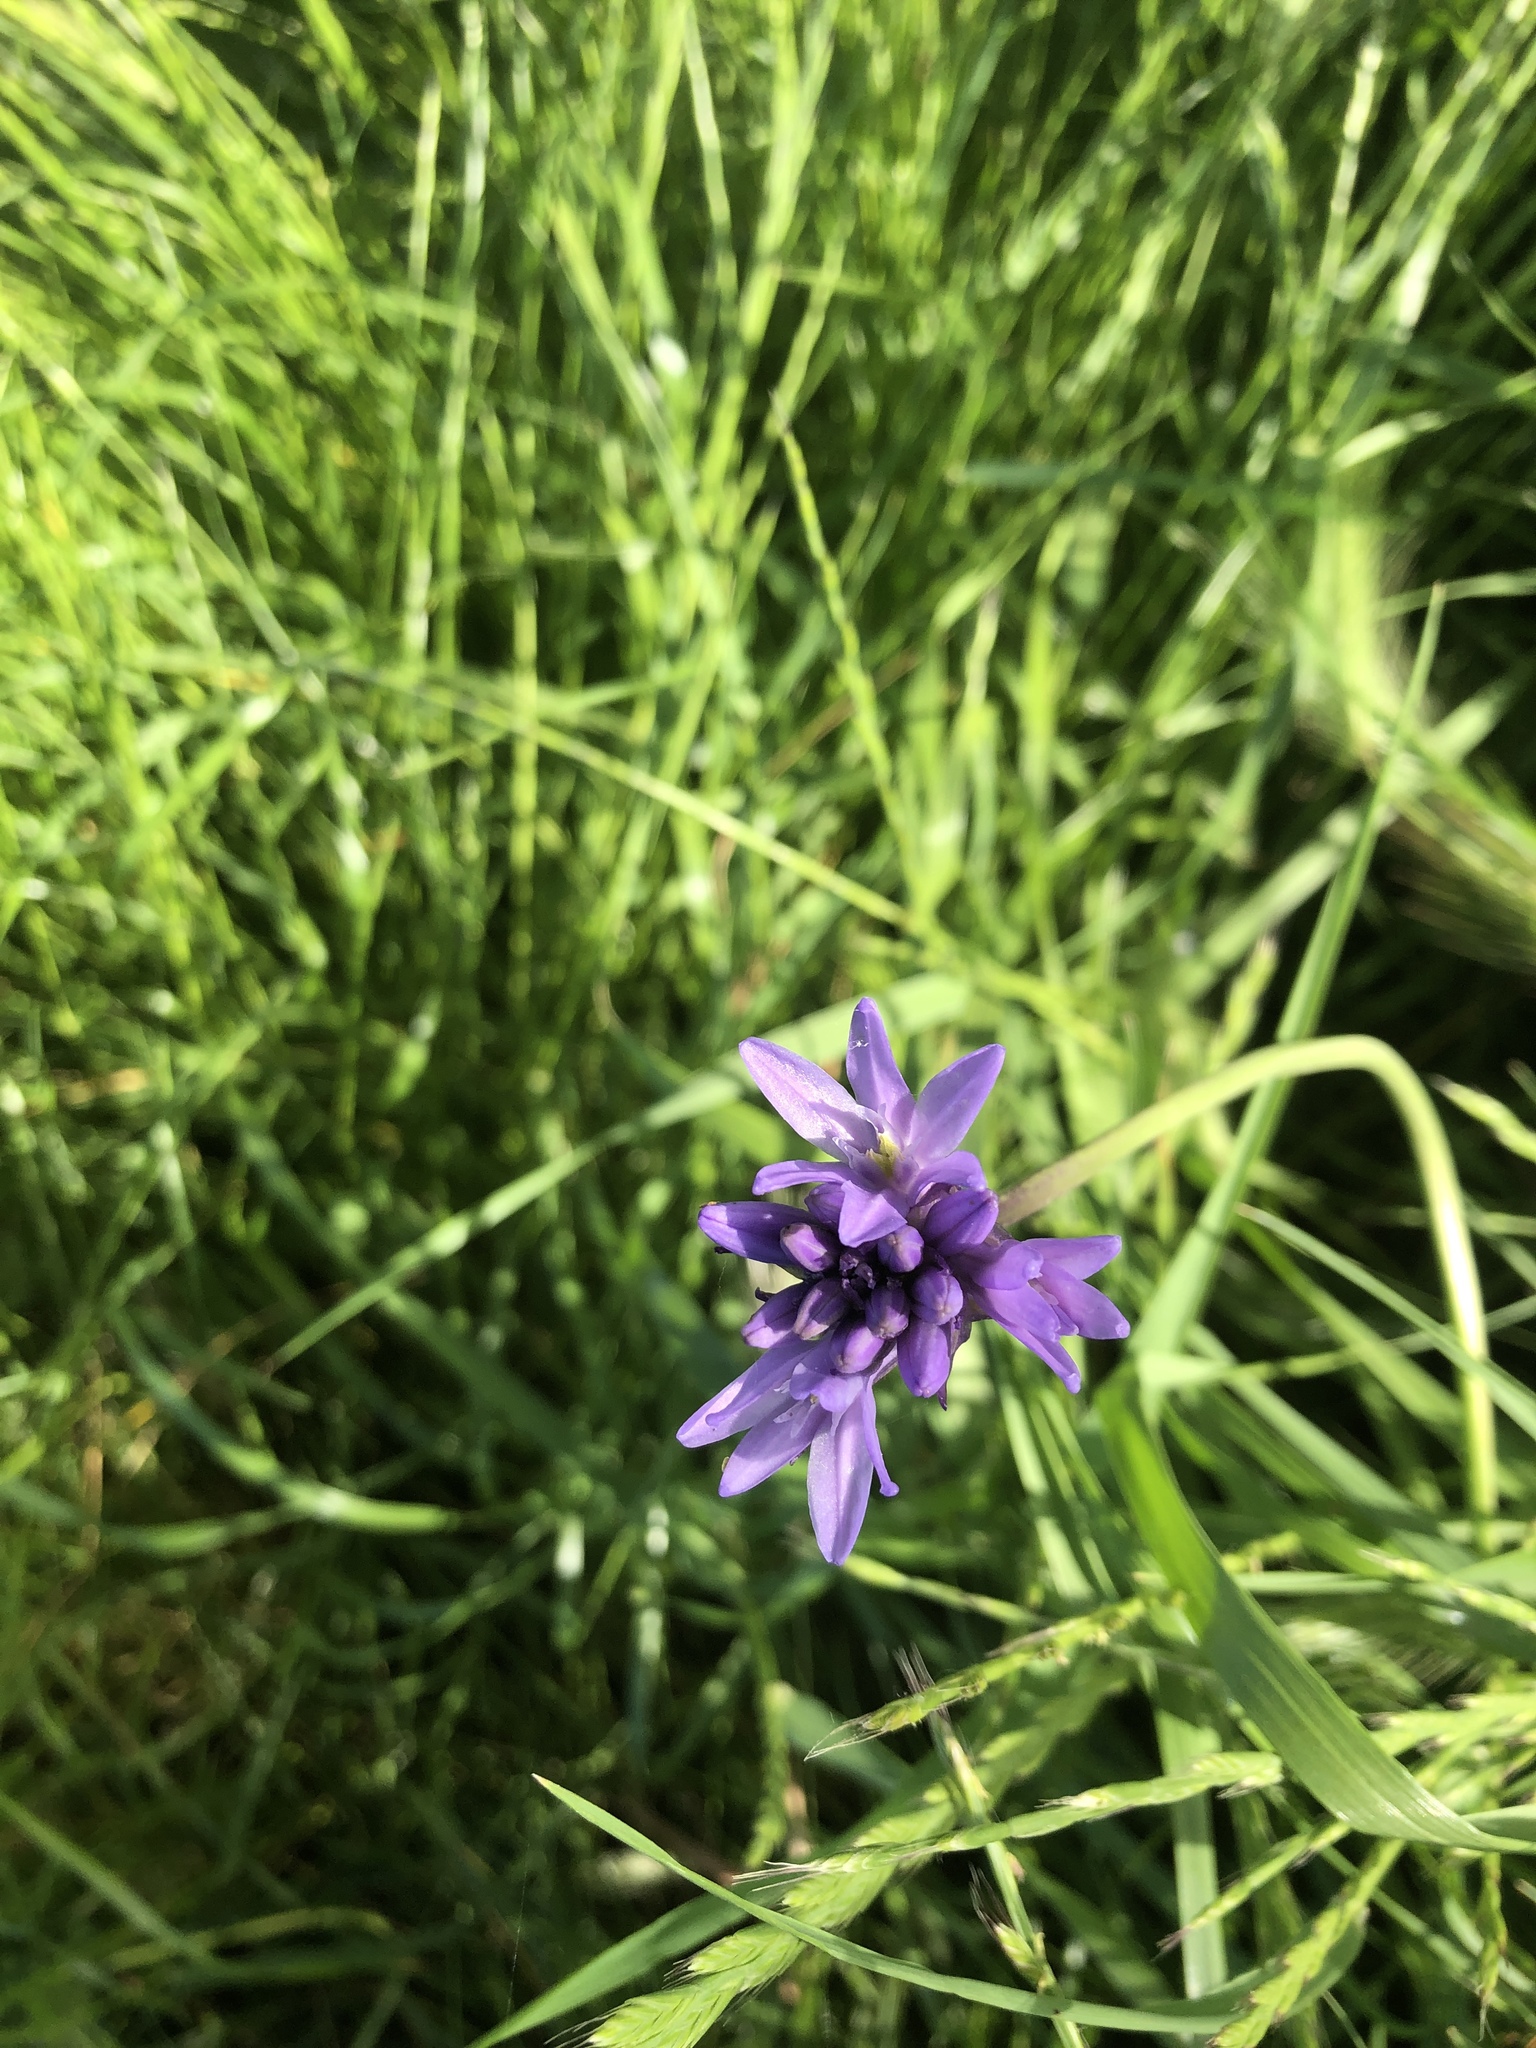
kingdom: Plantae
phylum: Tracheophyta
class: Liliopsida
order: Asparagales
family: Asparagaceae
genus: Dichelostemma
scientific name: Dichelostemma congestum
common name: Fork-tooth ookow
